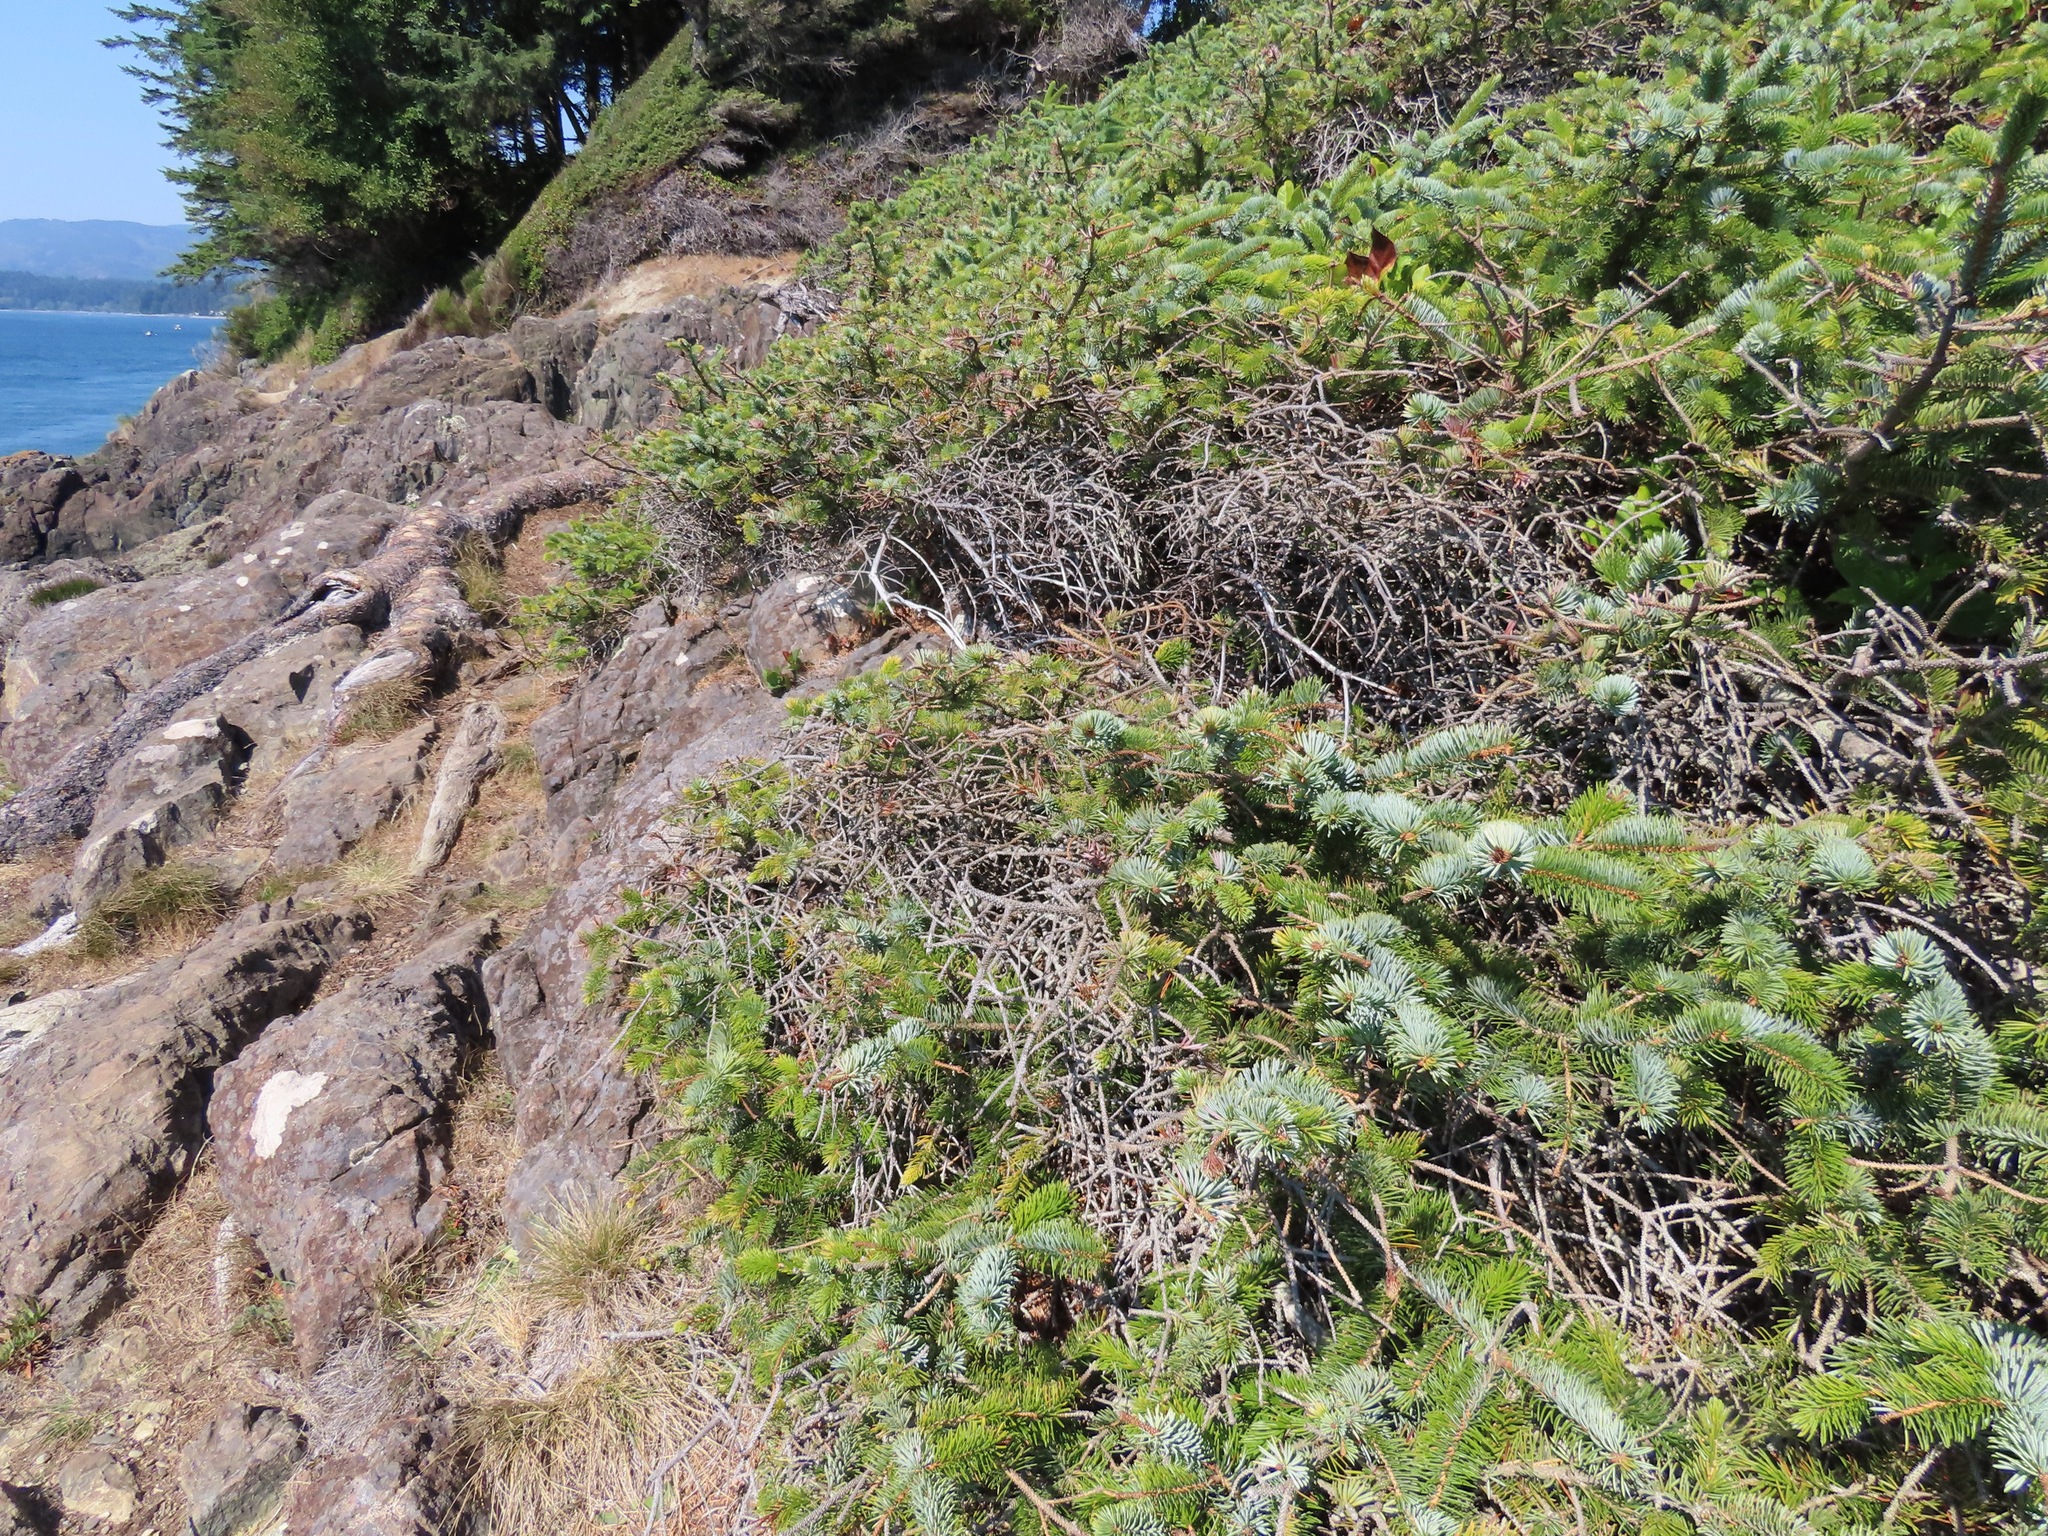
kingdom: Plantae
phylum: Tracheophyta
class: Pinopsida
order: Pinales
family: Pinaceae
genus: Picea
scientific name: Picea sitchensis
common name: Sitka spruce
